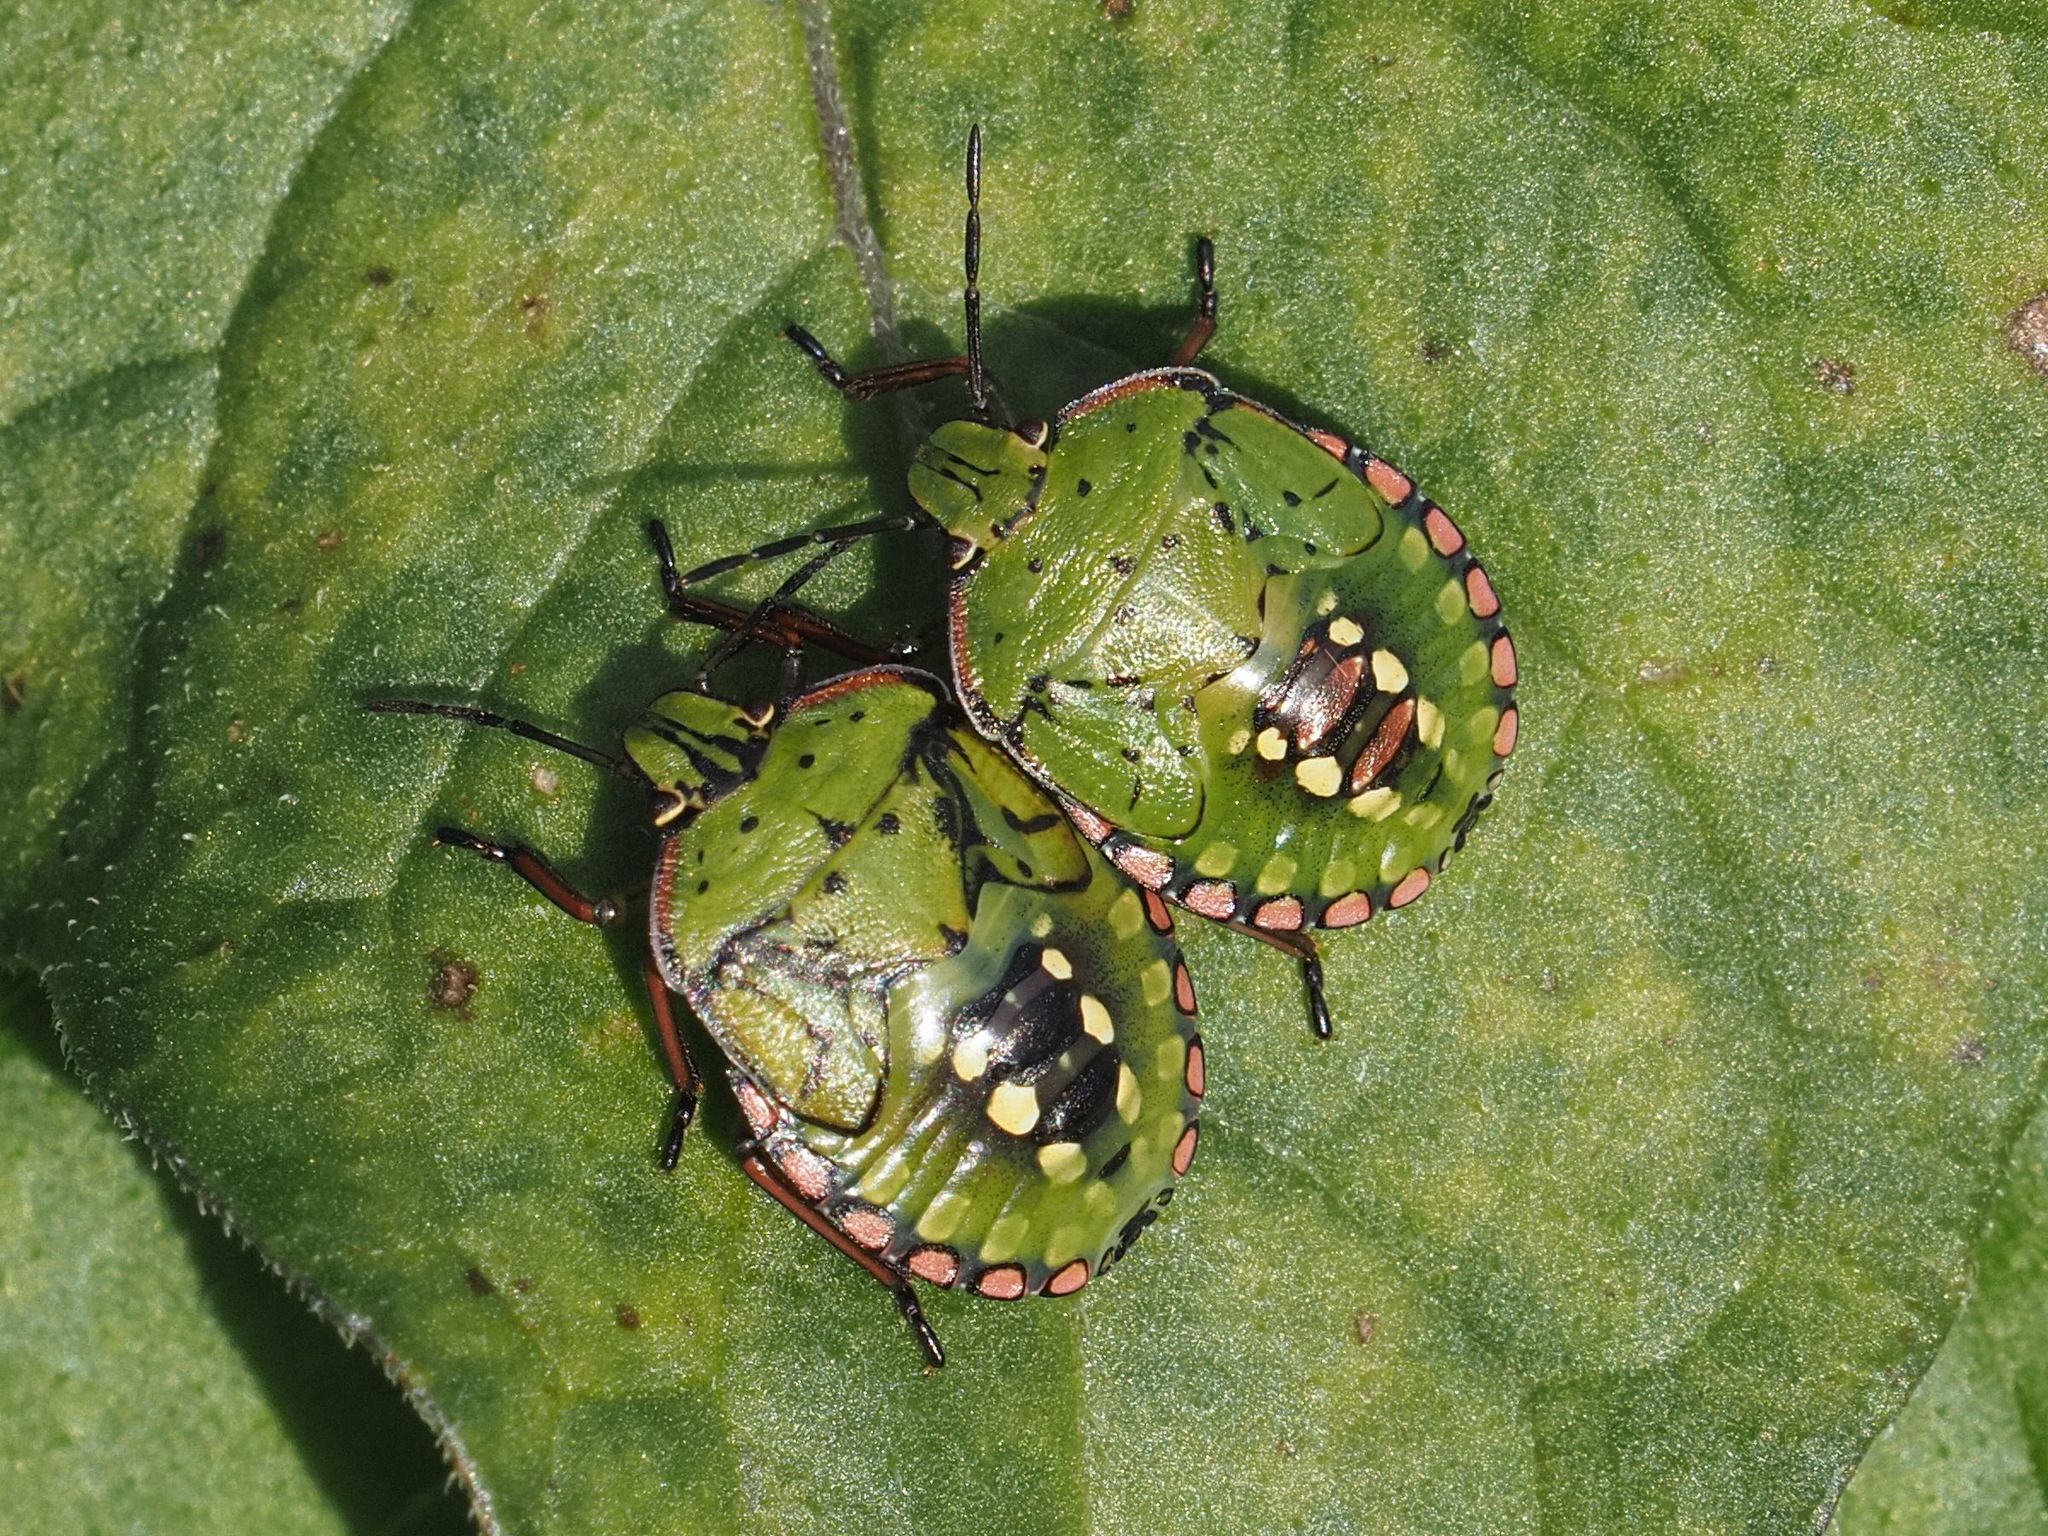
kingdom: Animalia
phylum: Arthropoda
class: Insecta
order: Hemiptera
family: Pentatomidae
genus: Nezara
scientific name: Nezara viridula
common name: Southern green stink bug
